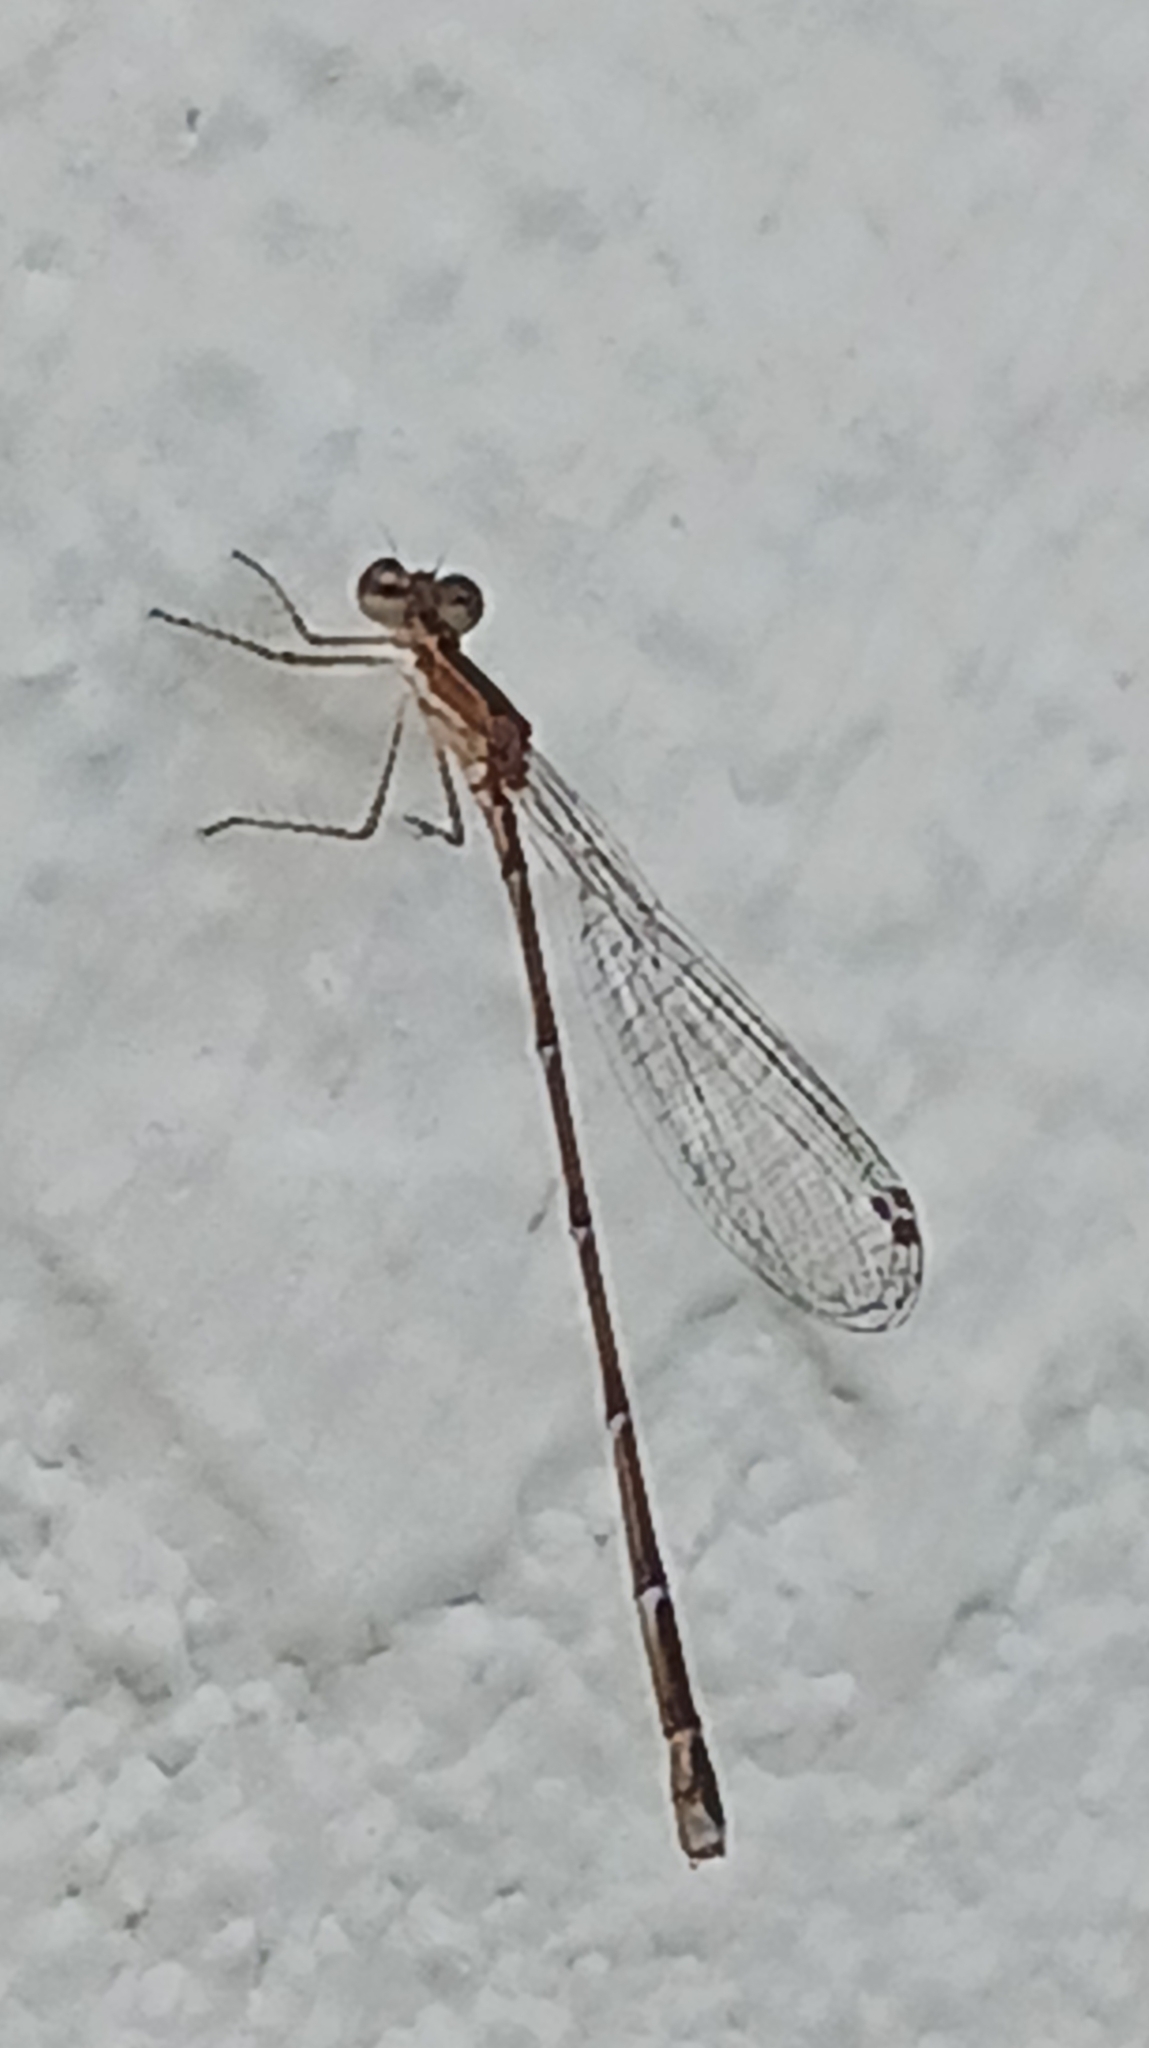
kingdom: Animalia
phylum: Arthropoda
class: Insecta
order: Odonata
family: Coenagrionidae
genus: Nehalennia
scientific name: Nehalennia pallidula
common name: Everglades sprite
